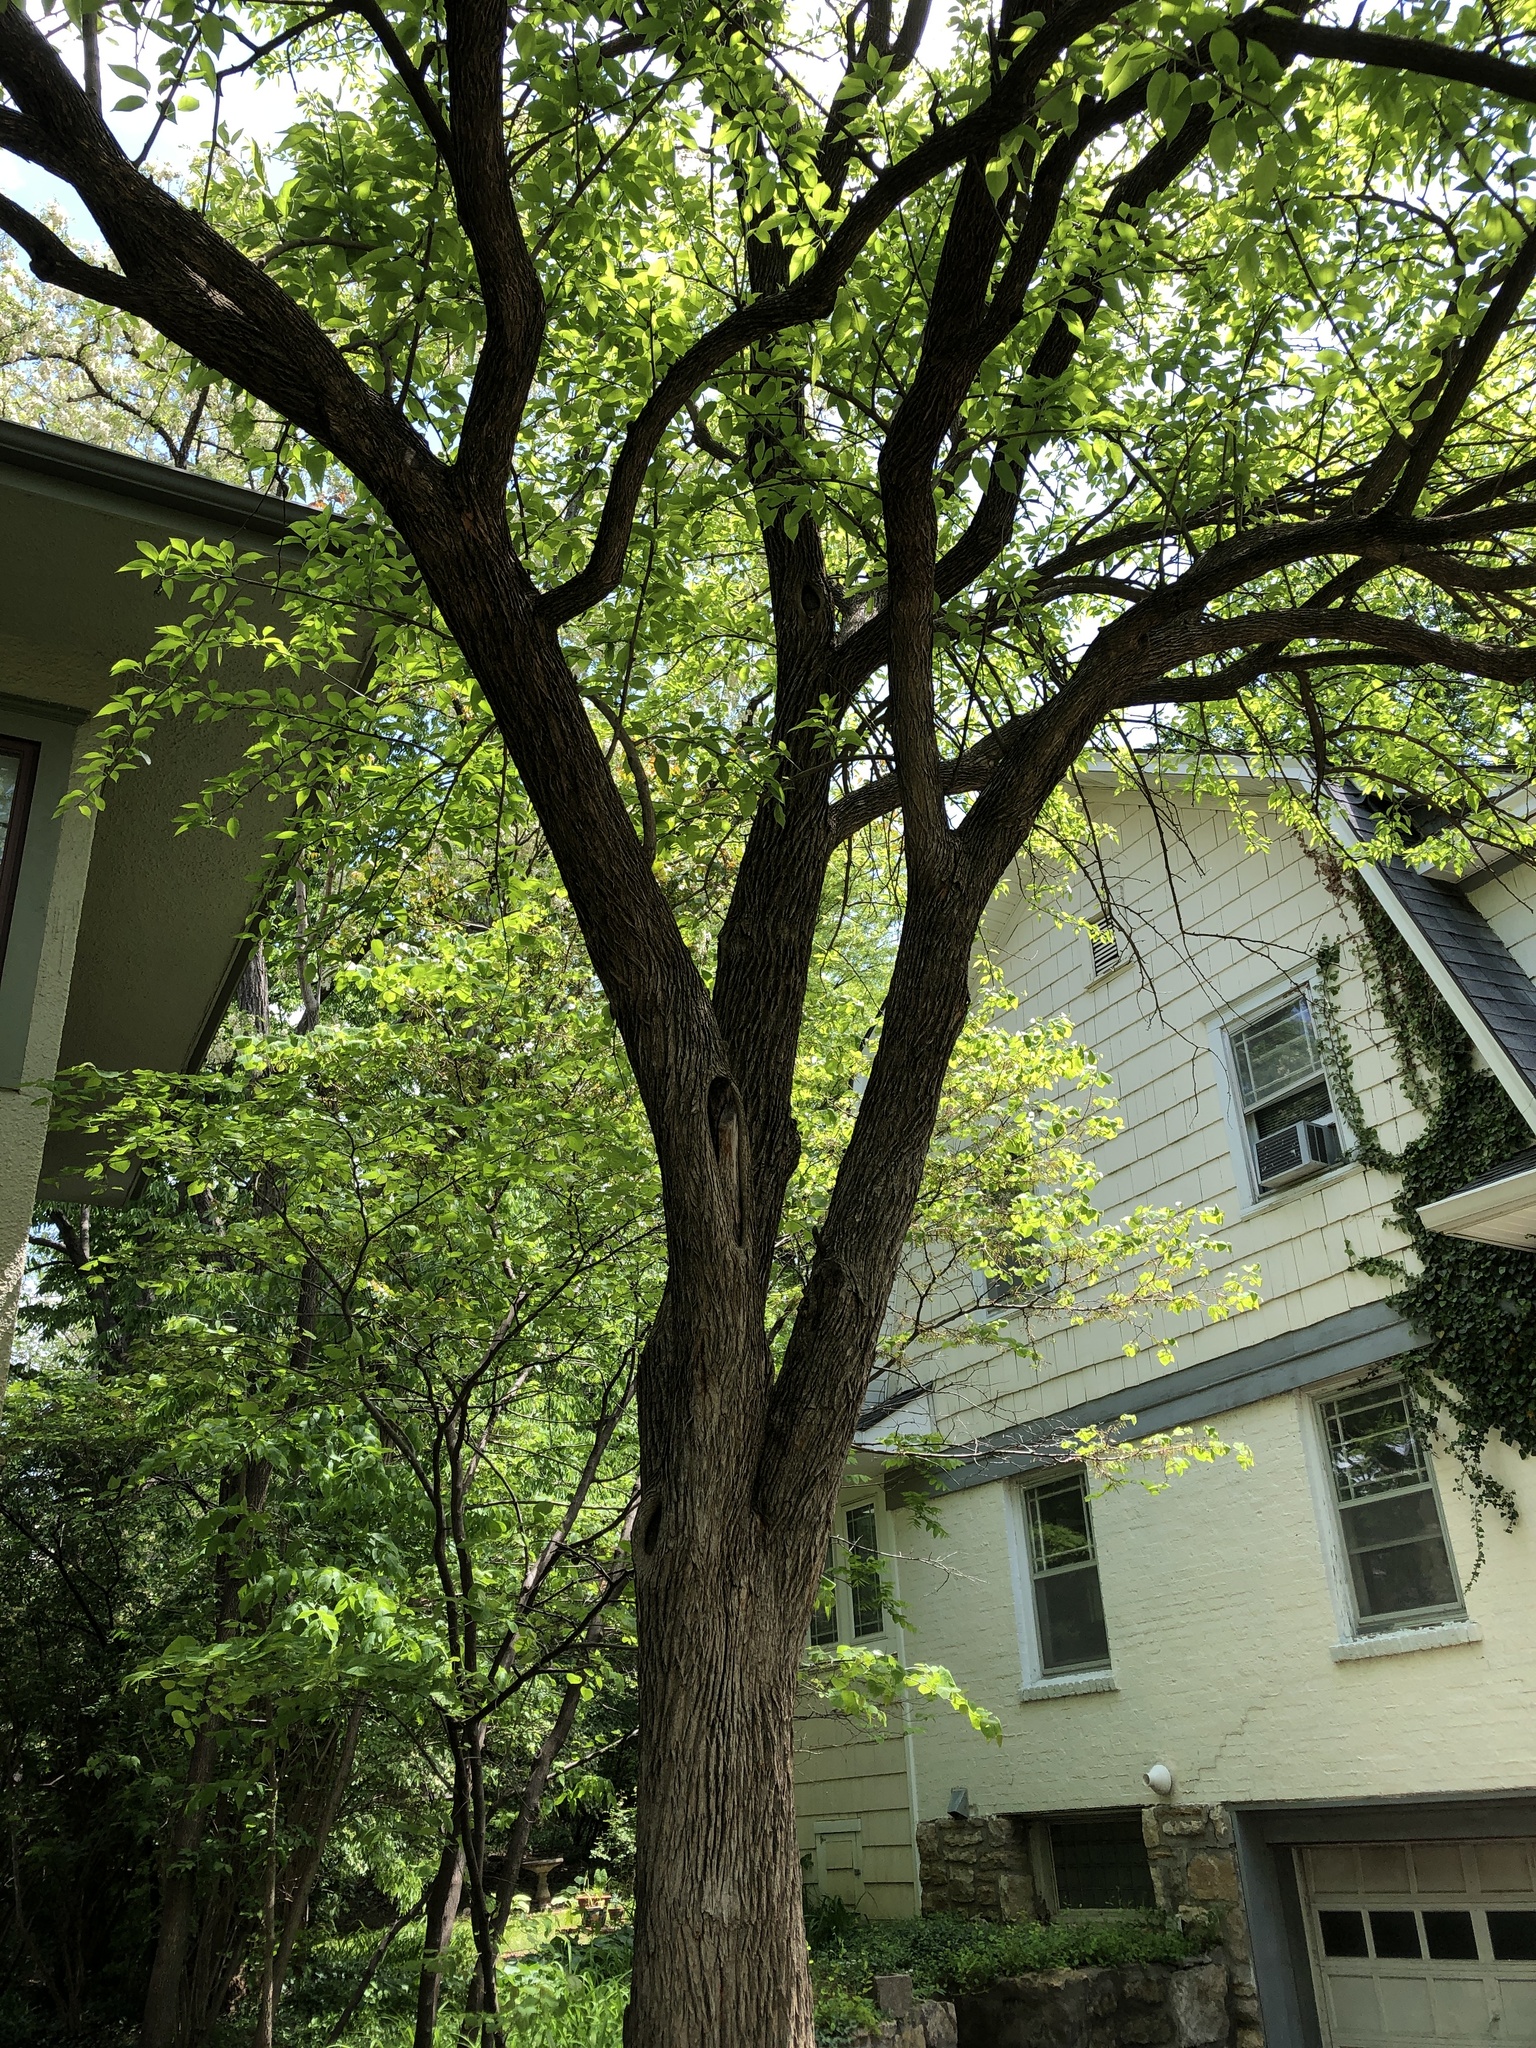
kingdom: Plantae
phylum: Tracheophyta
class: Magnoliopsida
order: Rosales
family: Moraceae
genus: Maclura
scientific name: Maclura pomifera
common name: Osage-orange
